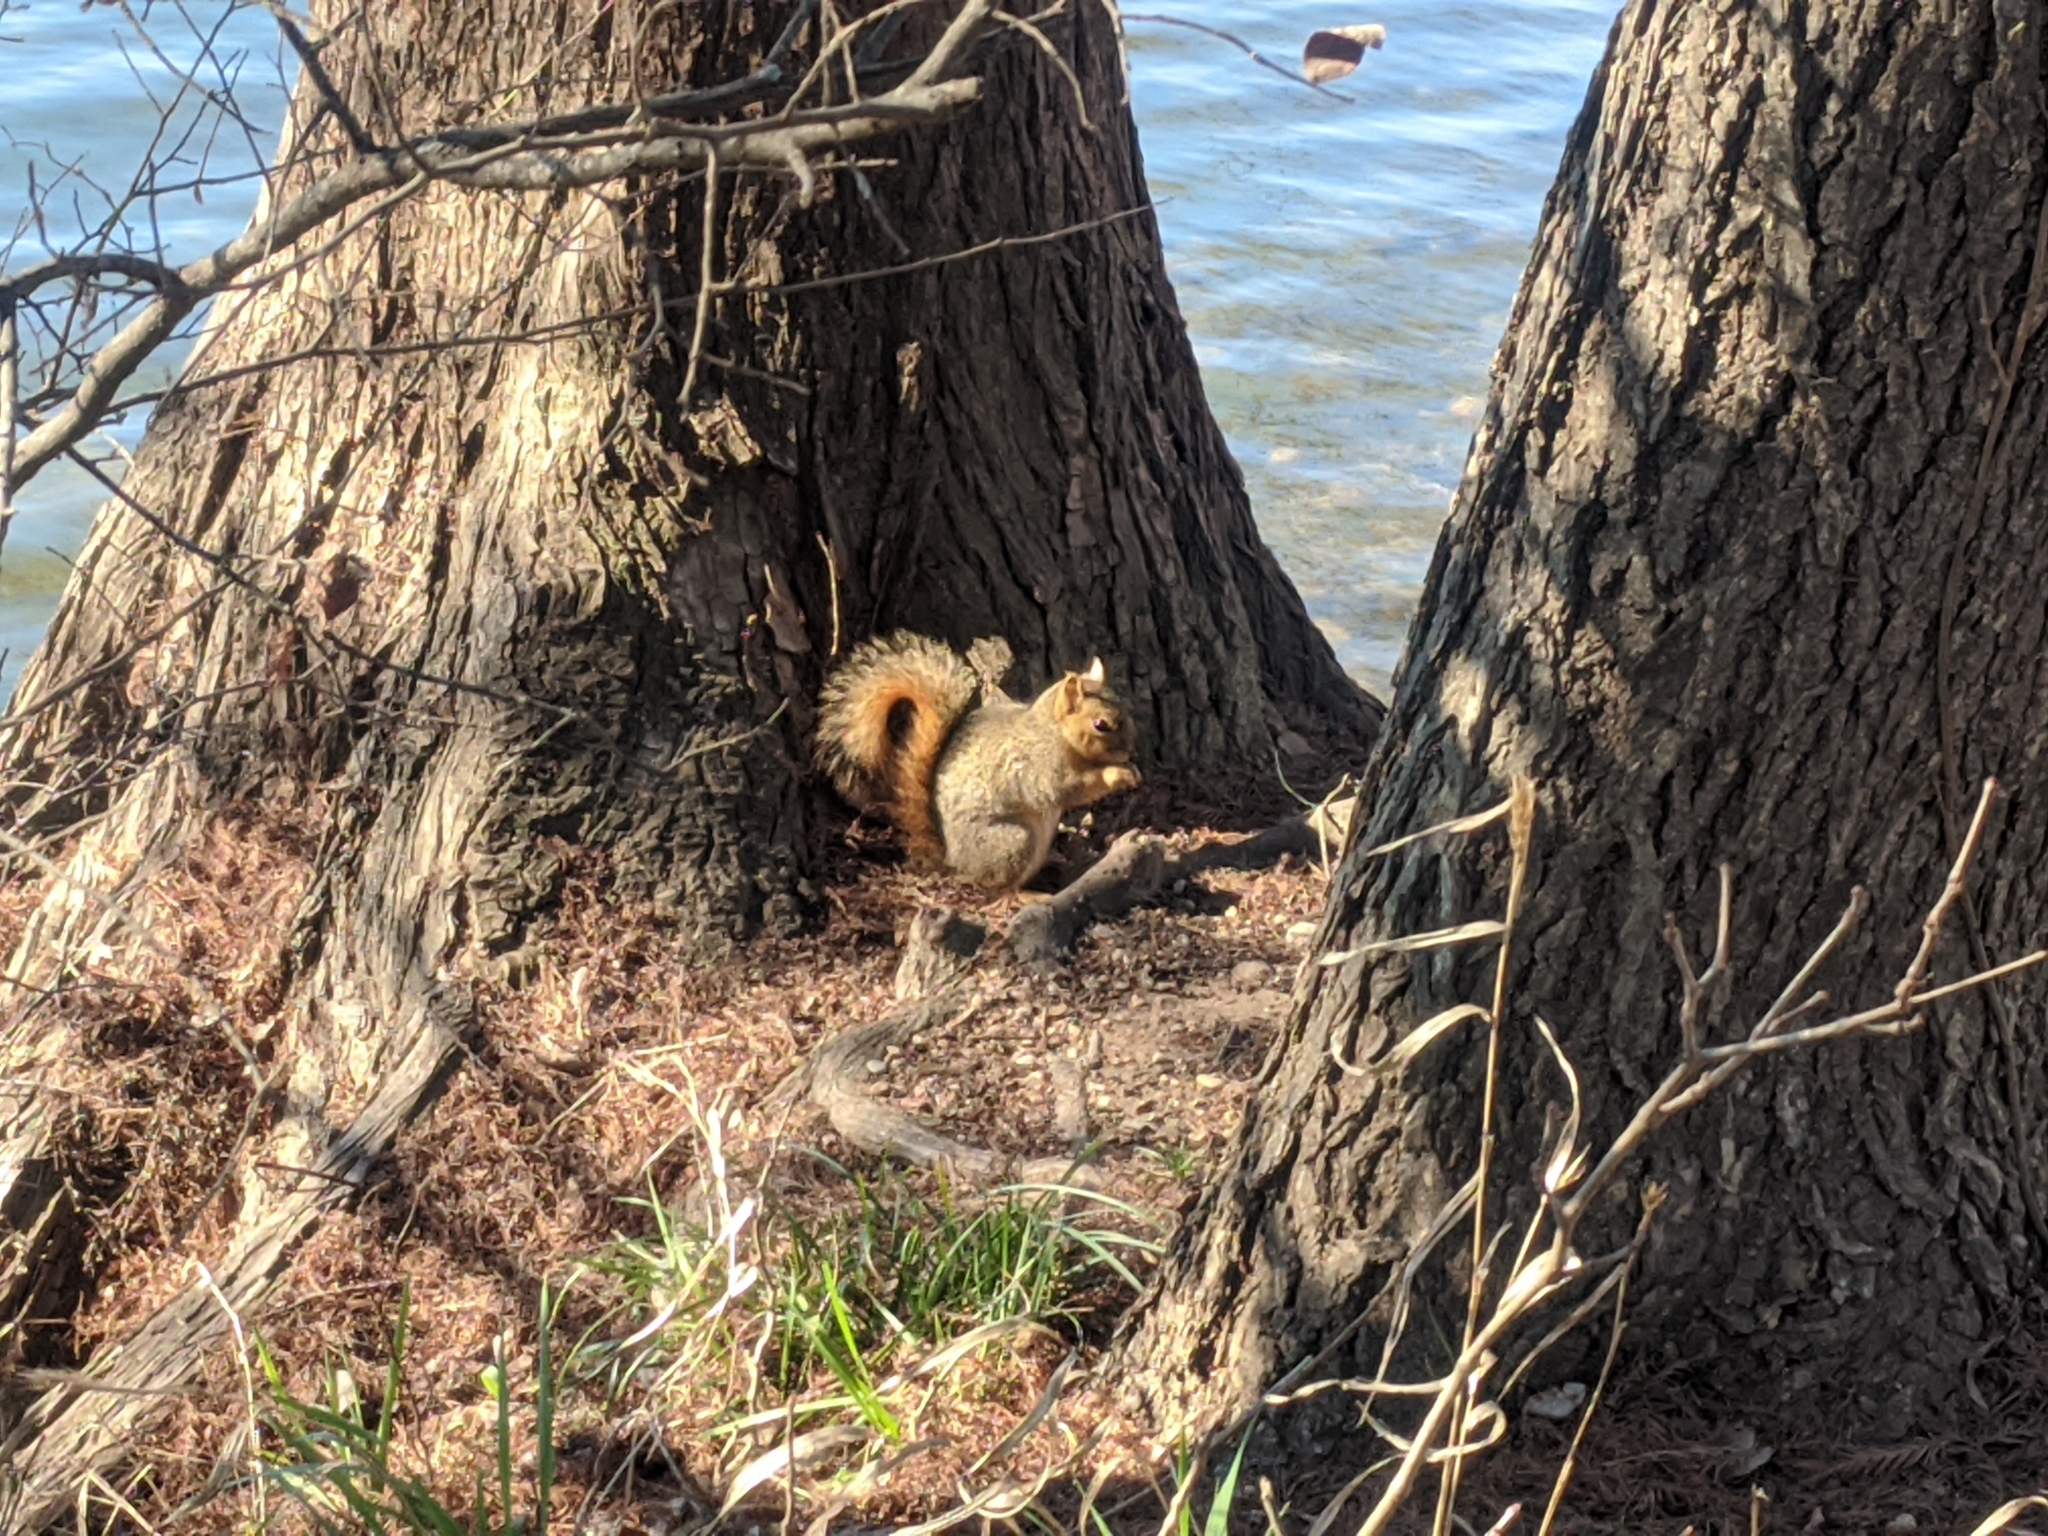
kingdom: Animalia
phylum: Chordata
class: Mammalia
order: Rodentia
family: Sciuridae
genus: Sciurus
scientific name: Sciurus niger
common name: Fox squirrel
